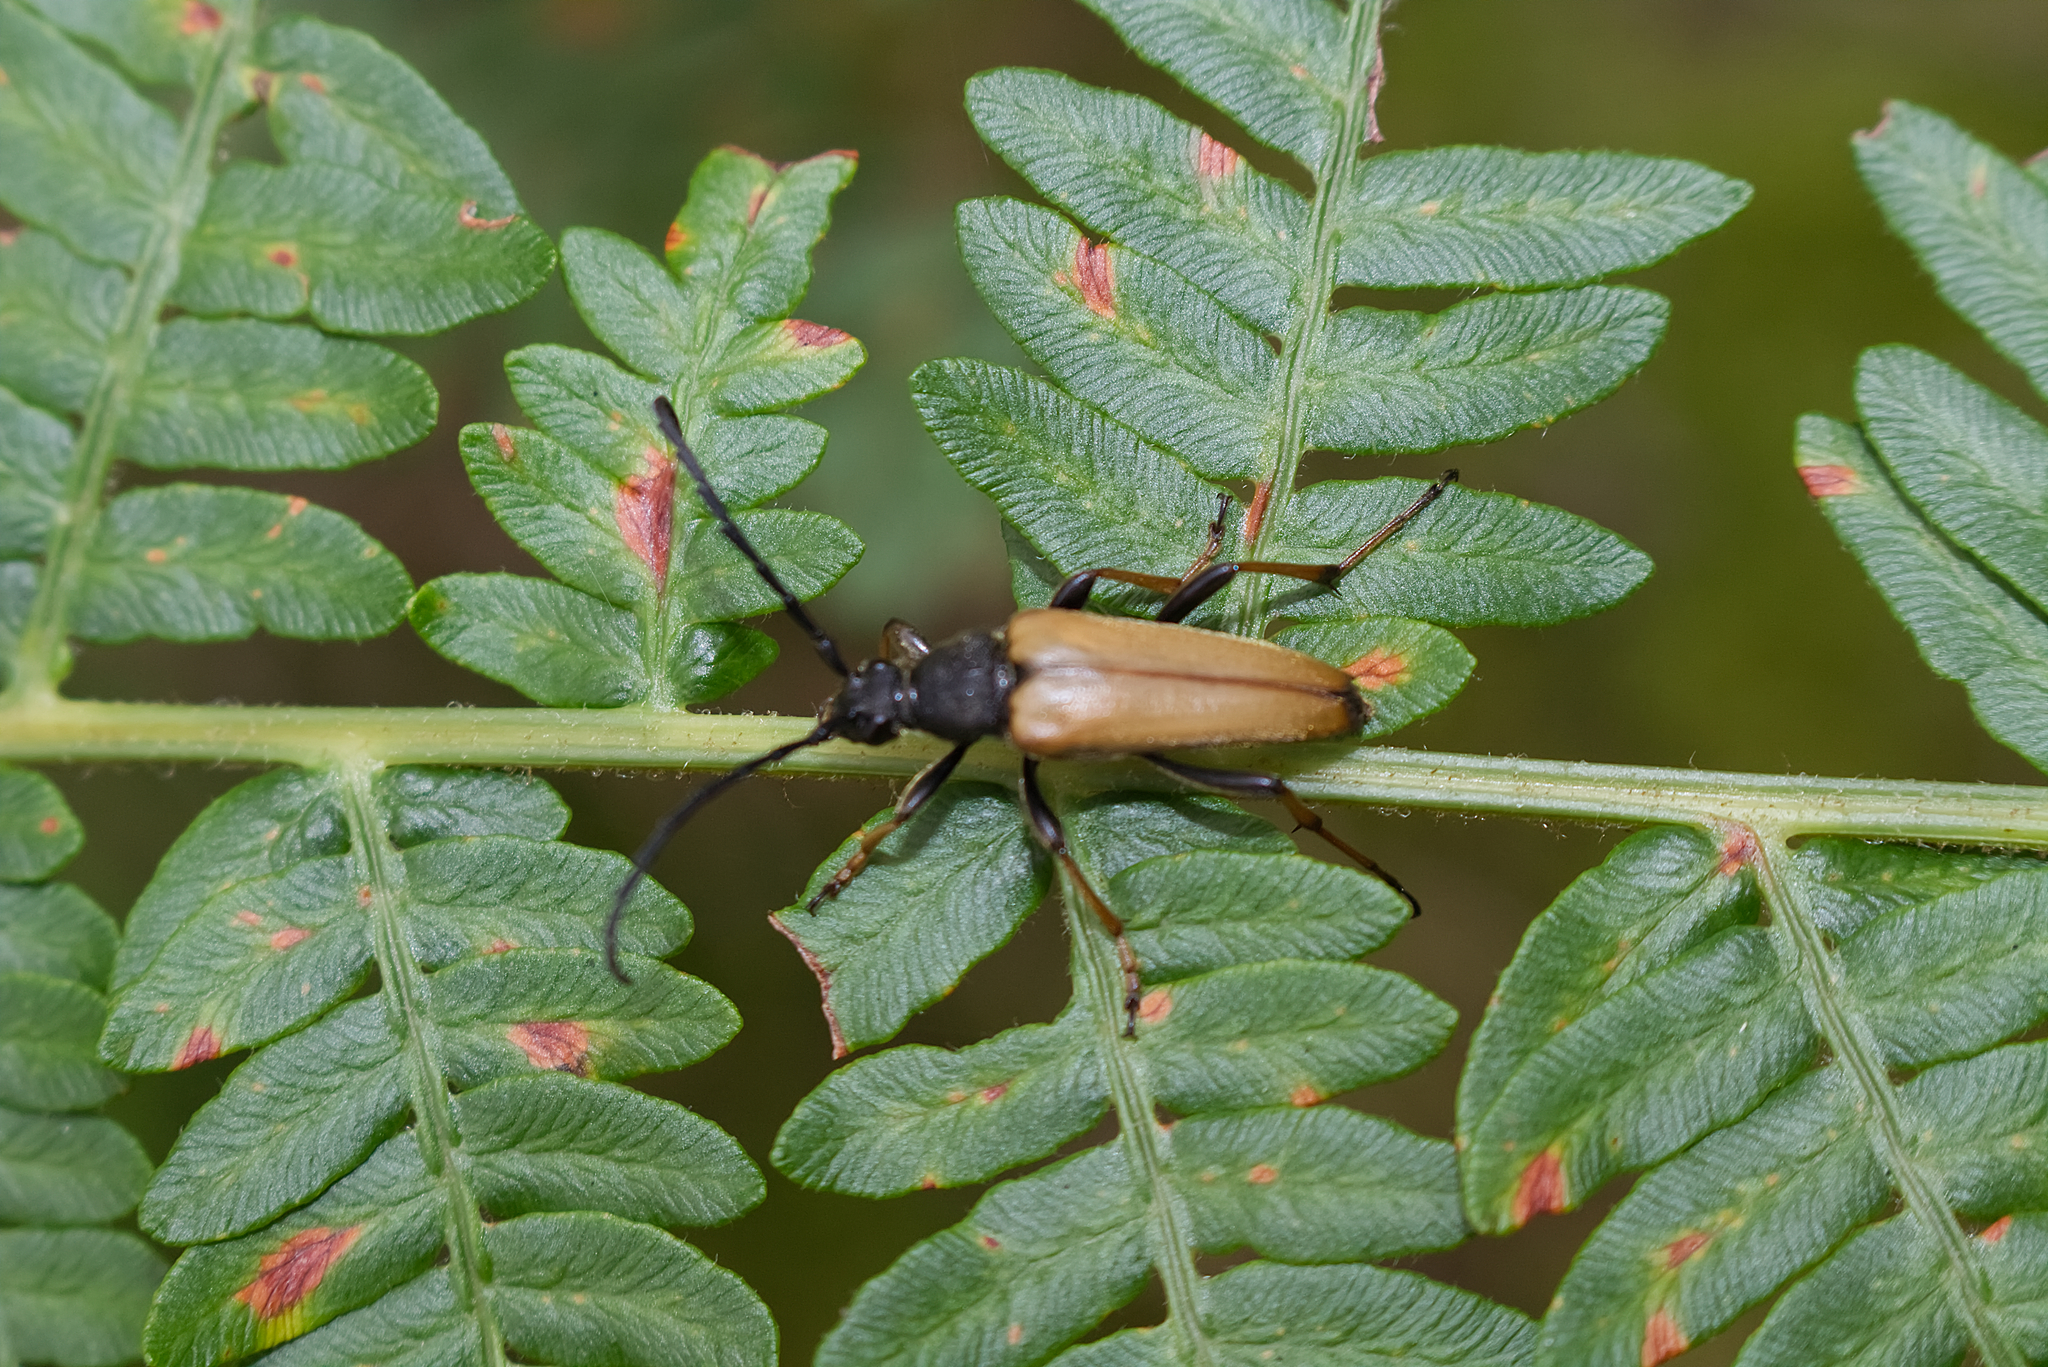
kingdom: Animalia
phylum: Arthropoda
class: Insecta
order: Coleoptera
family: Cerambycidae
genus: Stictoleptura
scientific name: Stictoleptura rubra
